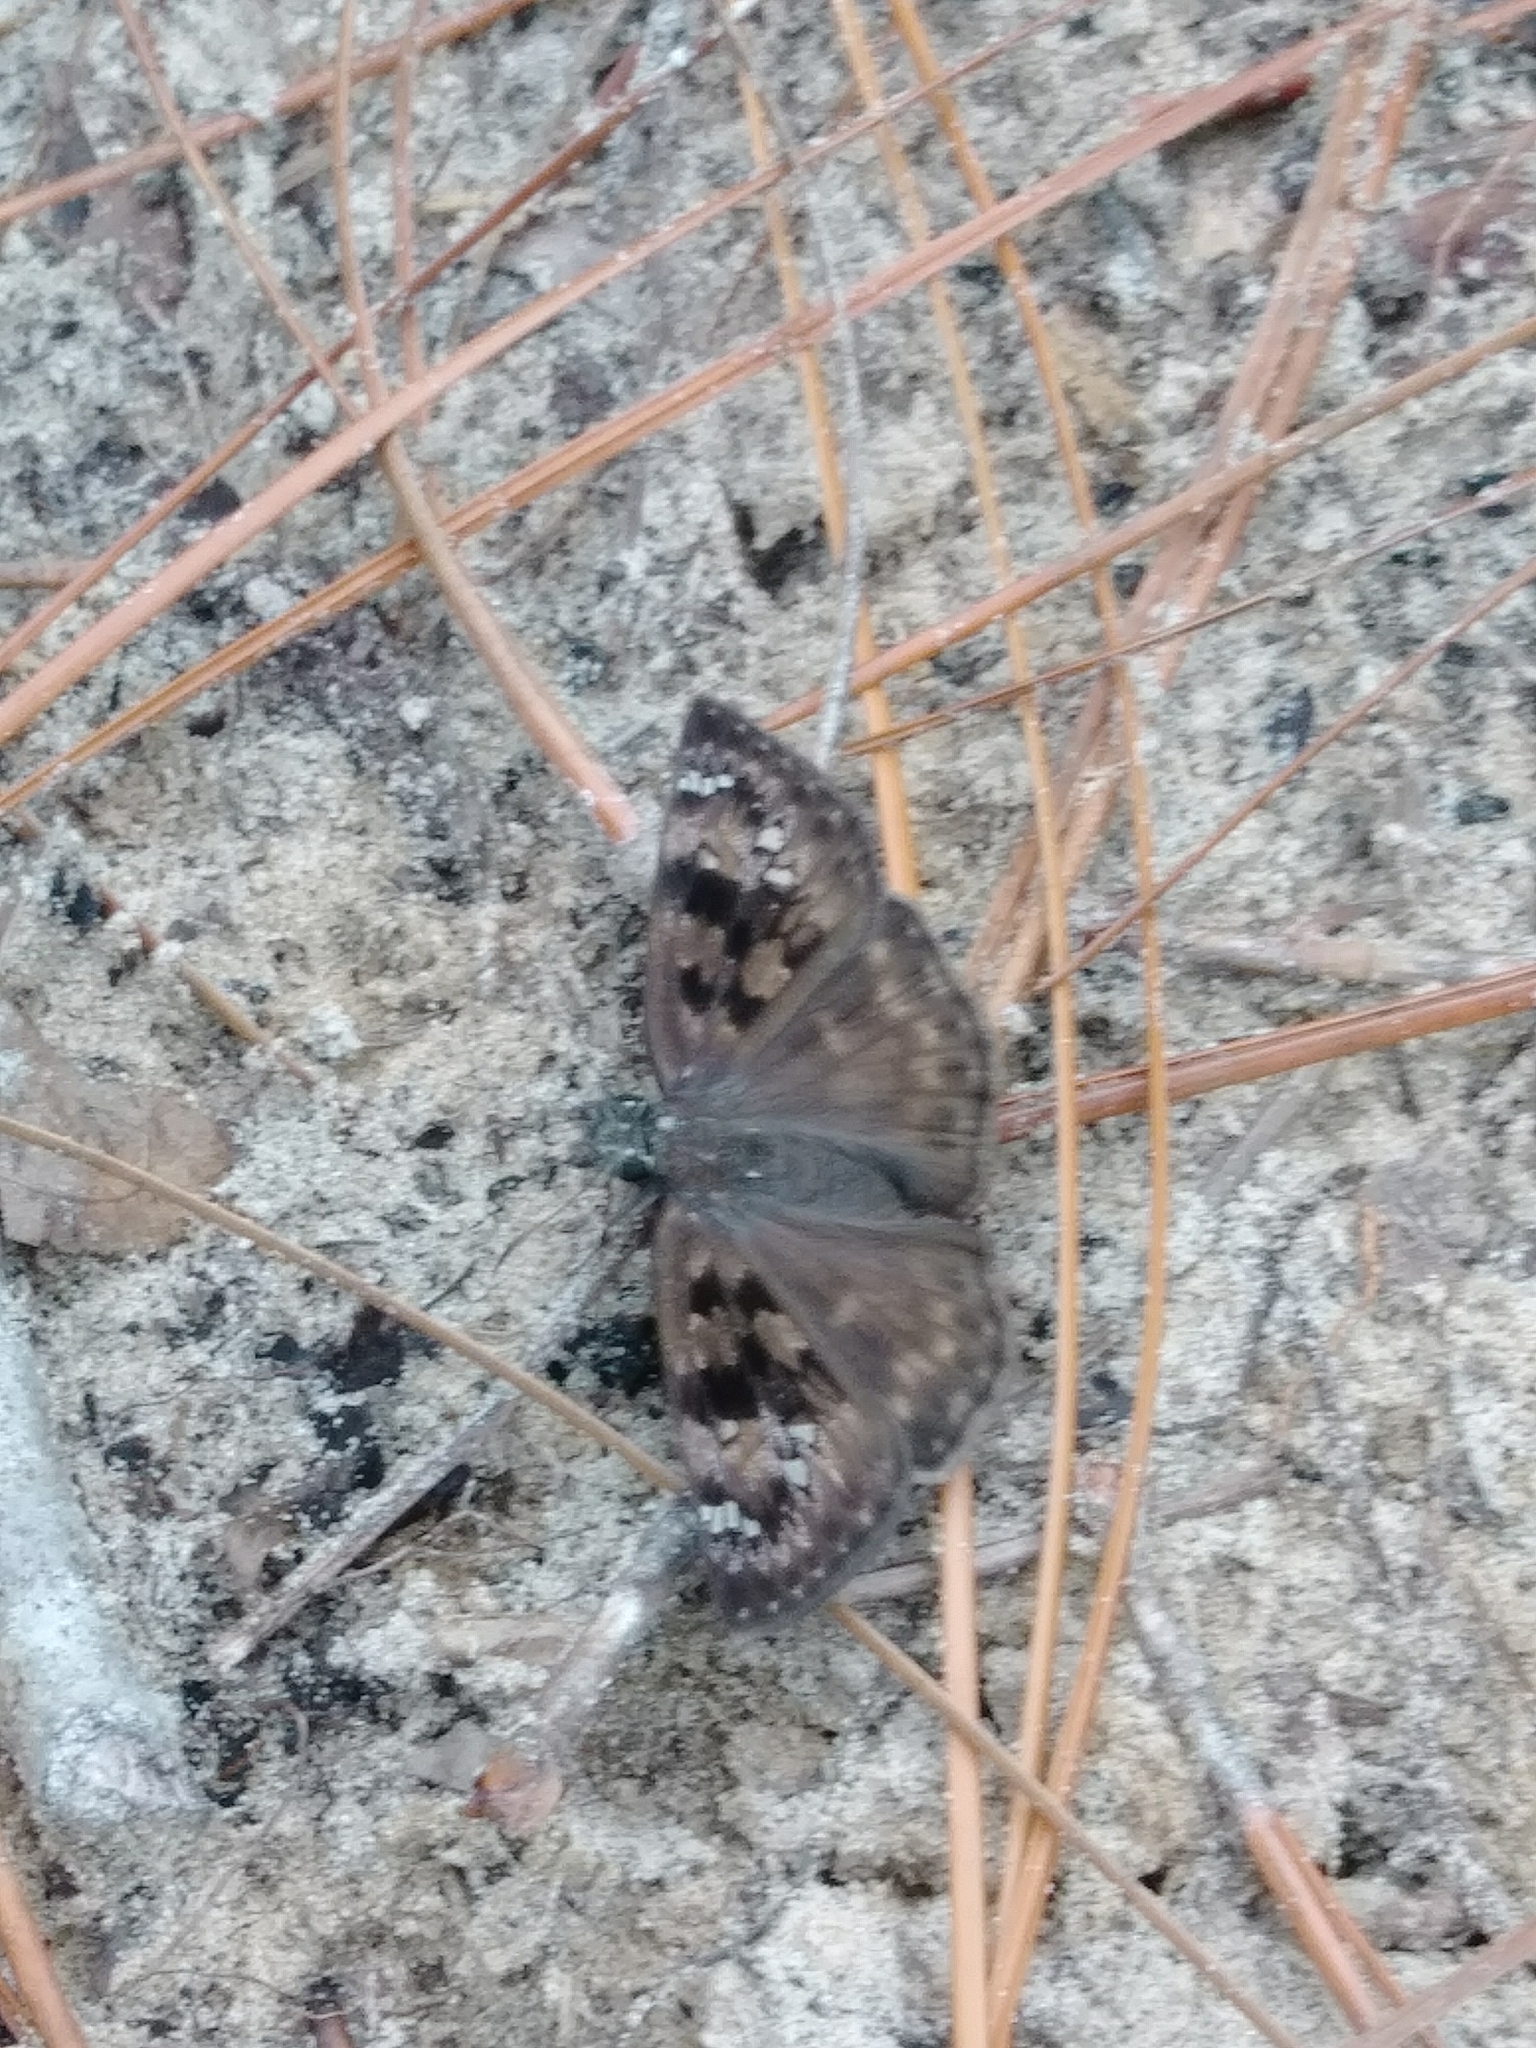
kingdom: Animalia
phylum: Arthropoda
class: Insecta
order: Lepidoptera
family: Hesperiidae
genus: Erynnis
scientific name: Erynnis horatius
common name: Horace's duskywing
